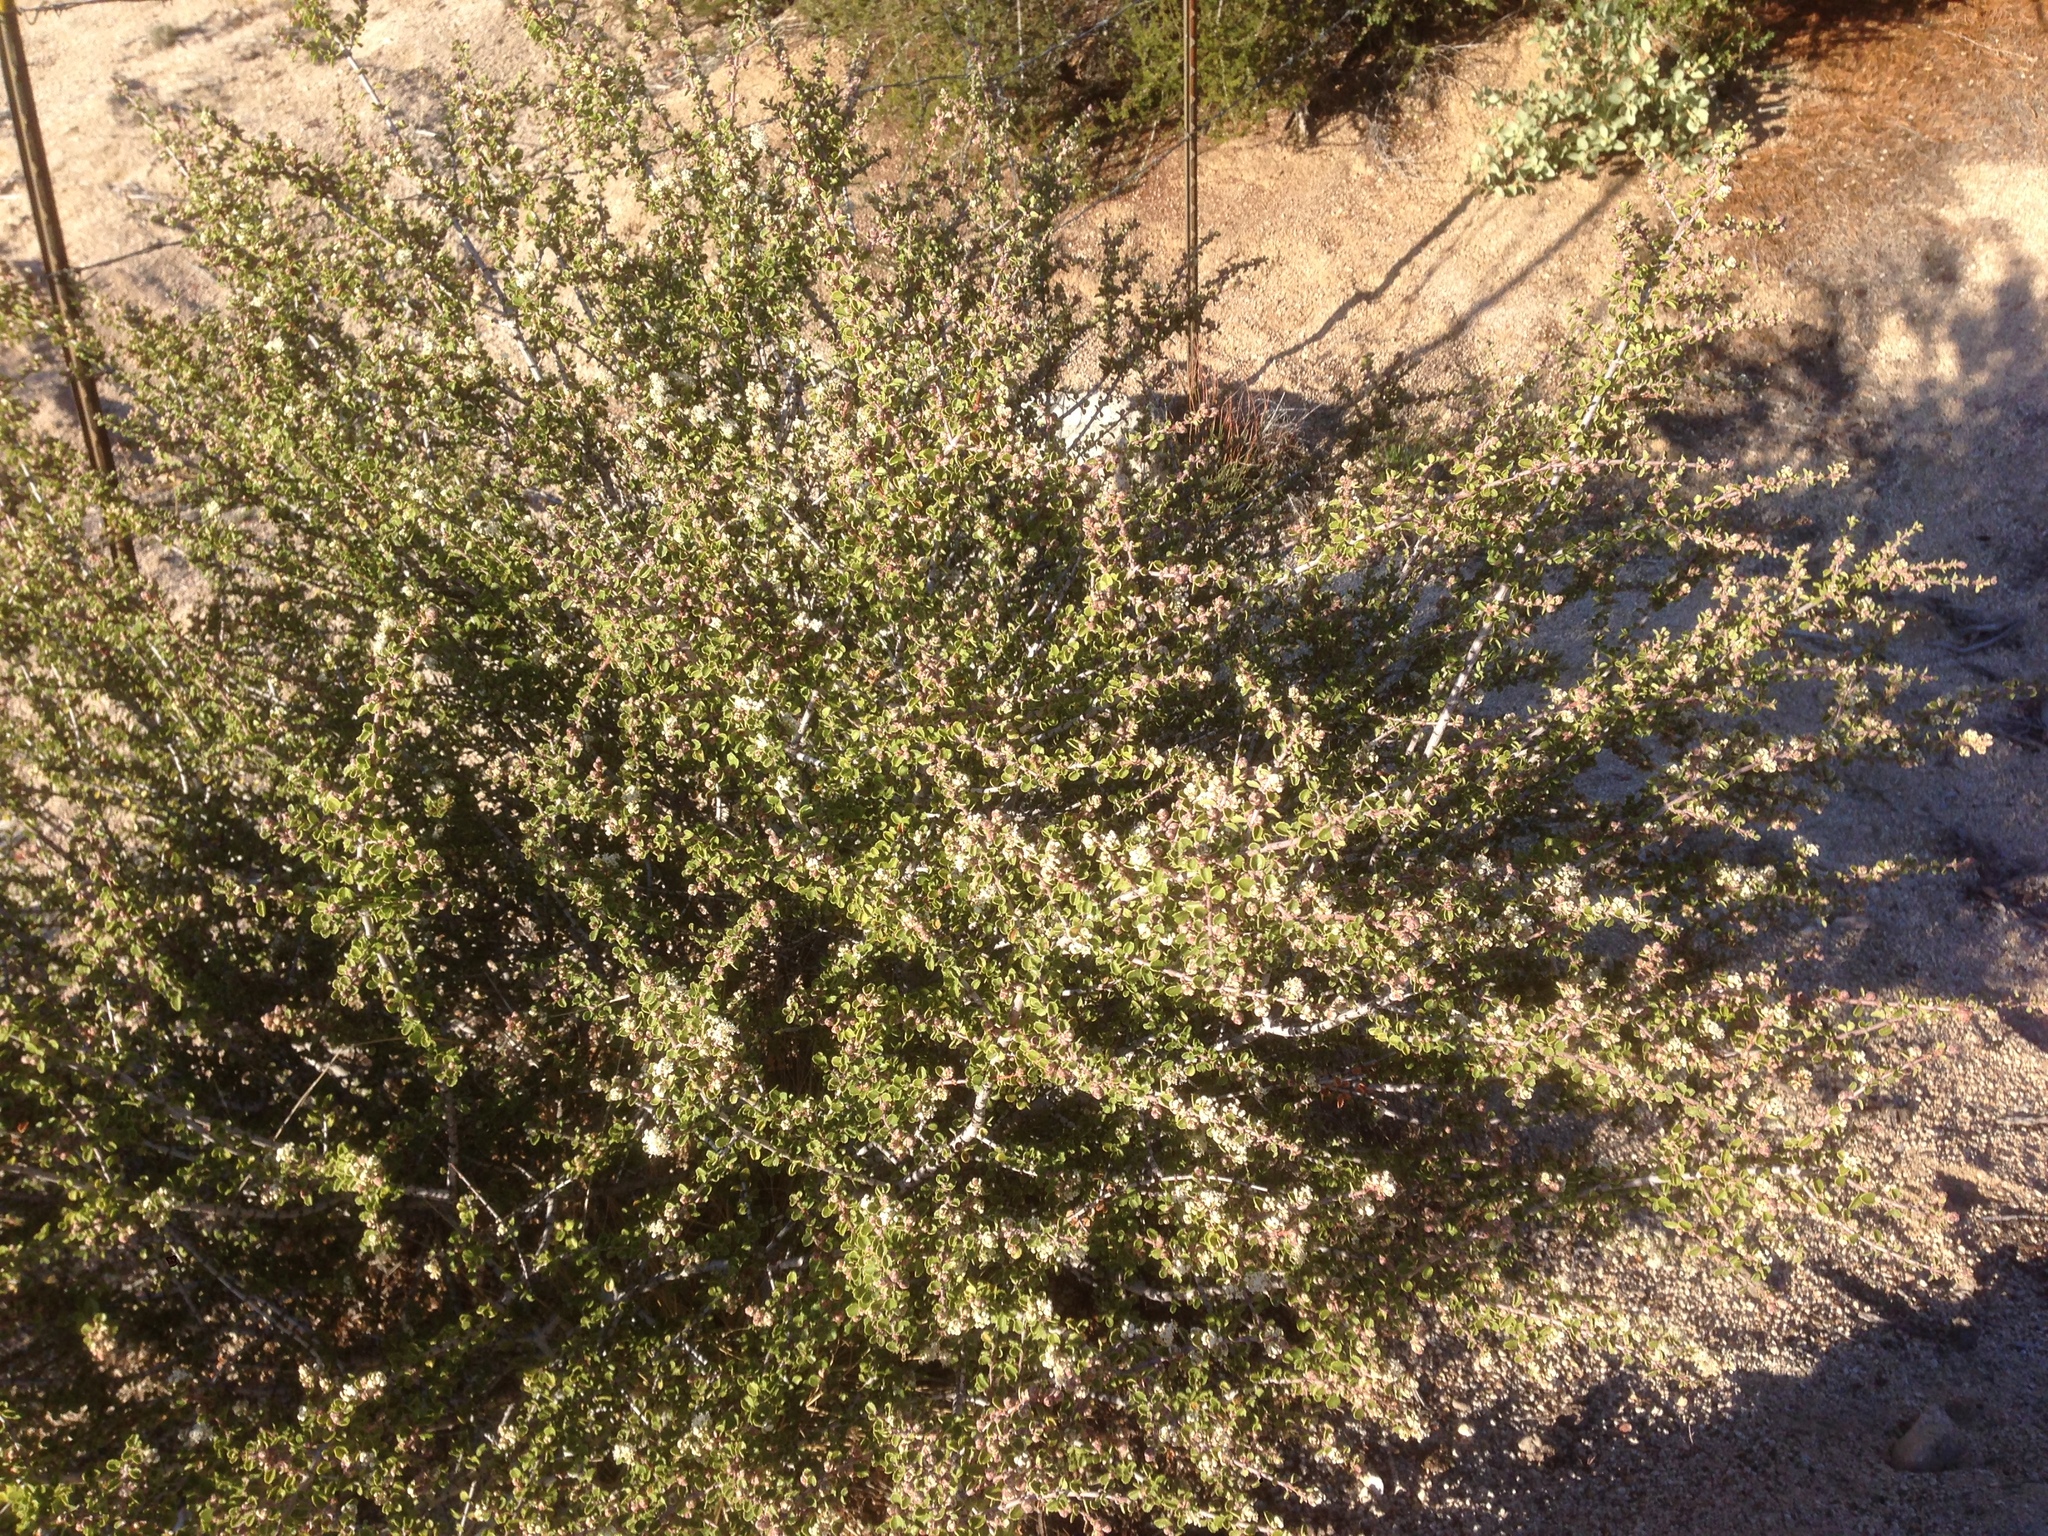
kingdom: Plantae
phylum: Tracheophyta
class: Magnoliopsida
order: Rosales
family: Rhamnaceae
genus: Ceanothus
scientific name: Ceanothus perplexans
